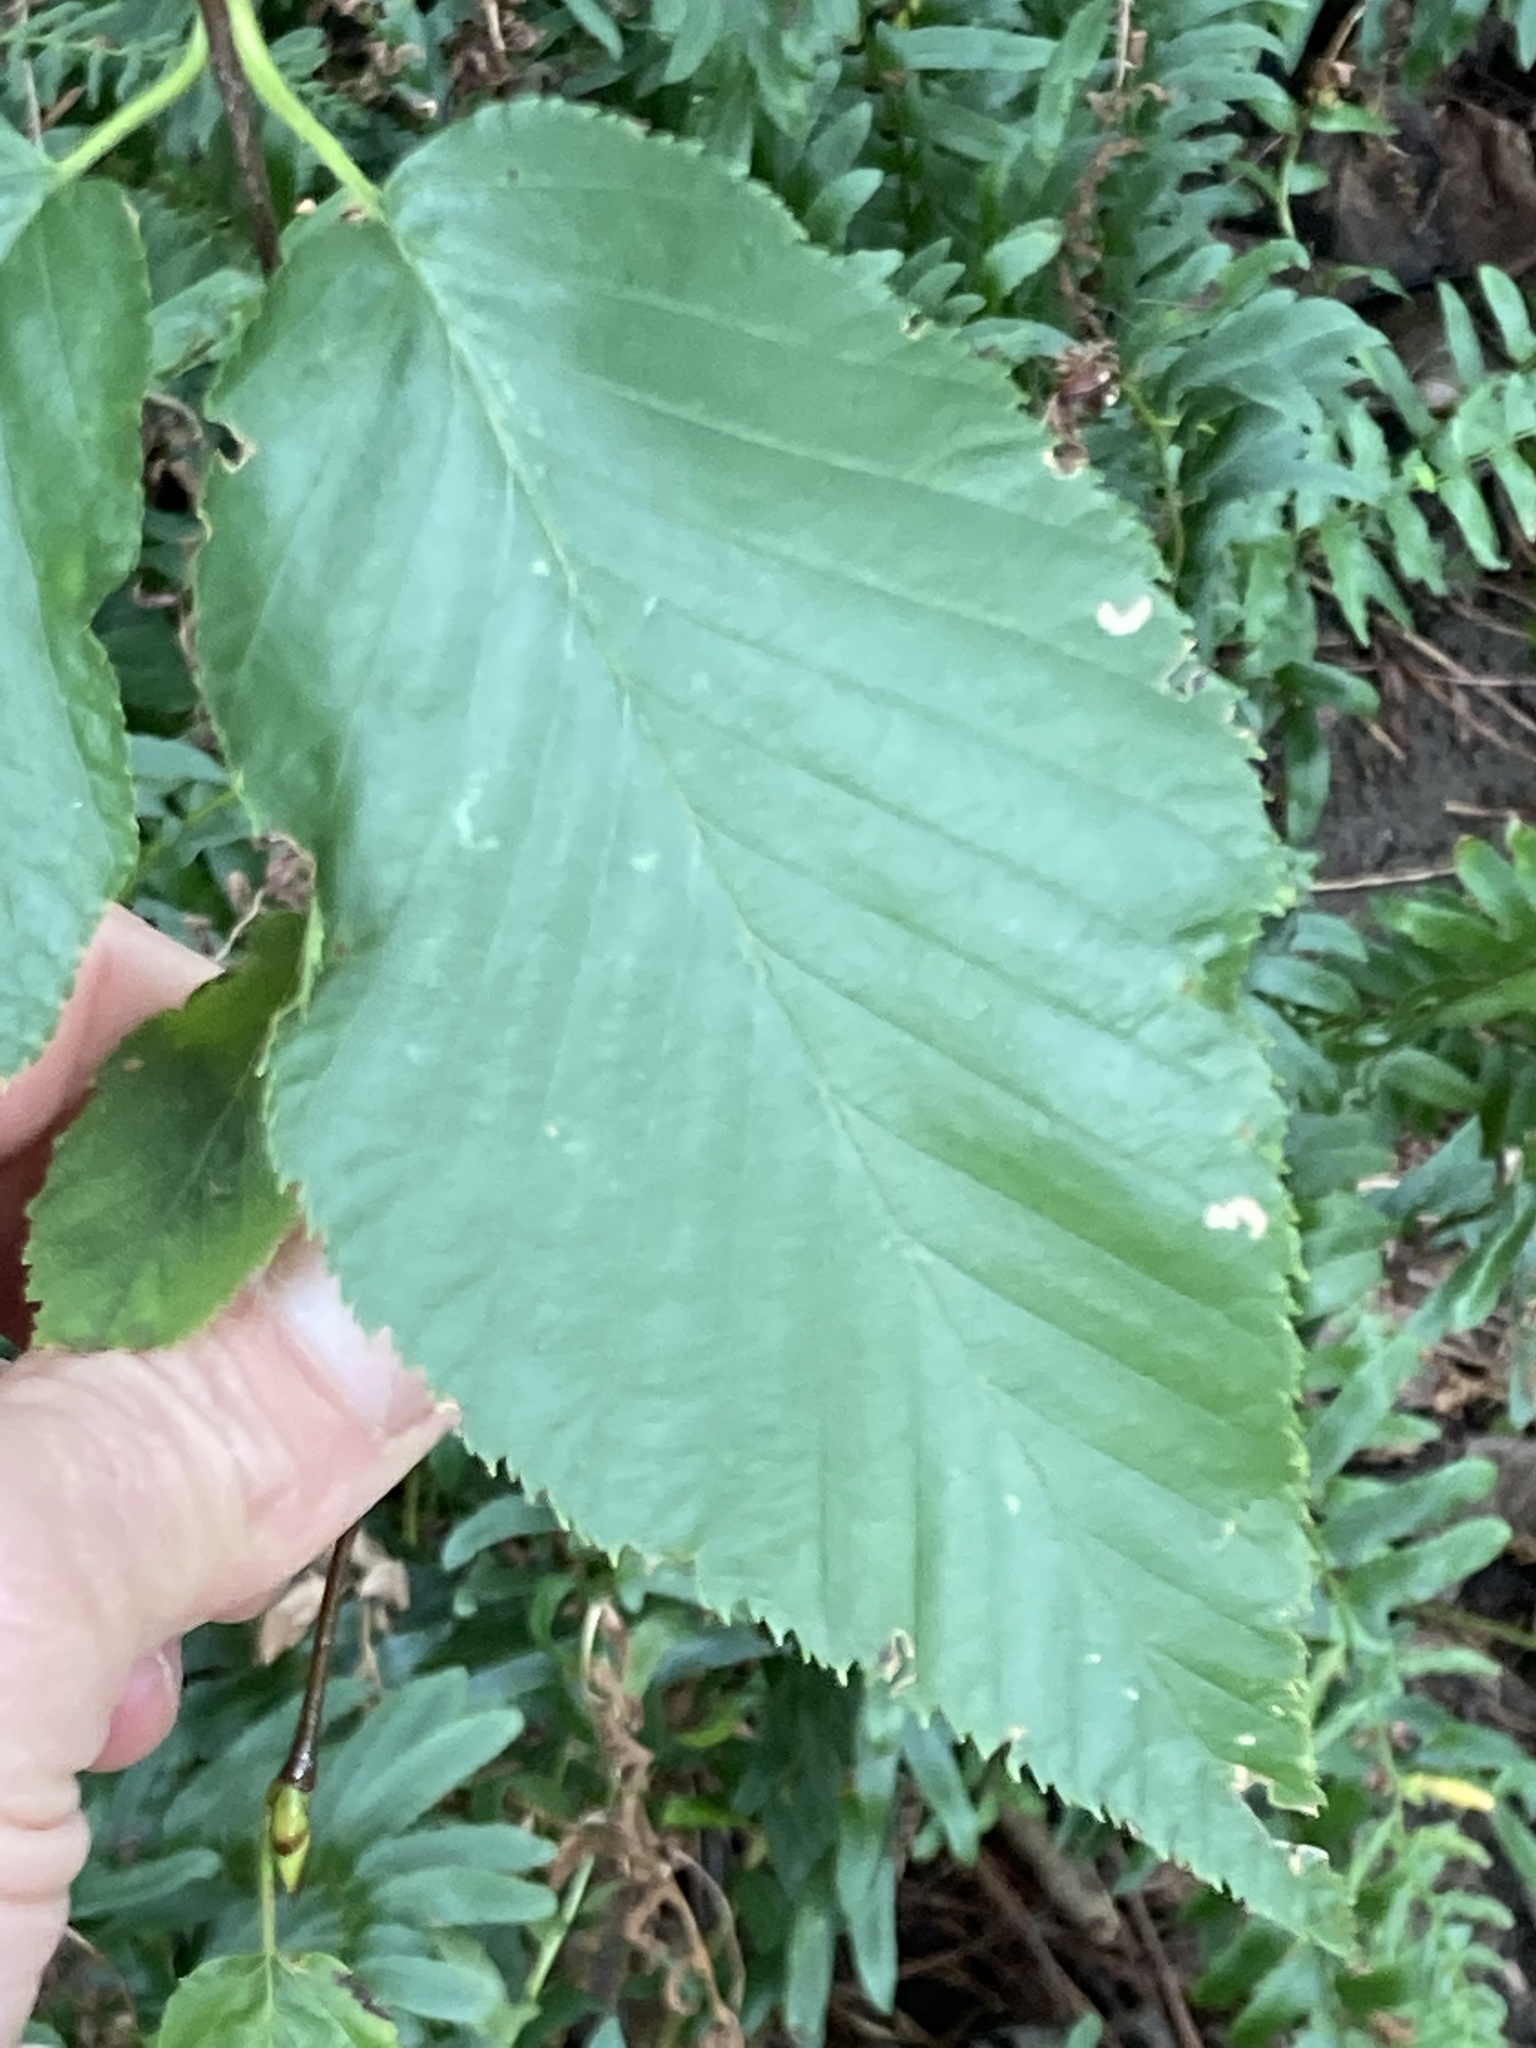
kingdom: Plantae
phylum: Tracheophyta
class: Magnoliopsida
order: Fagales
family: Betulaceae
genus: Betula
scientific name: Betula lenta
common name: Black birch
